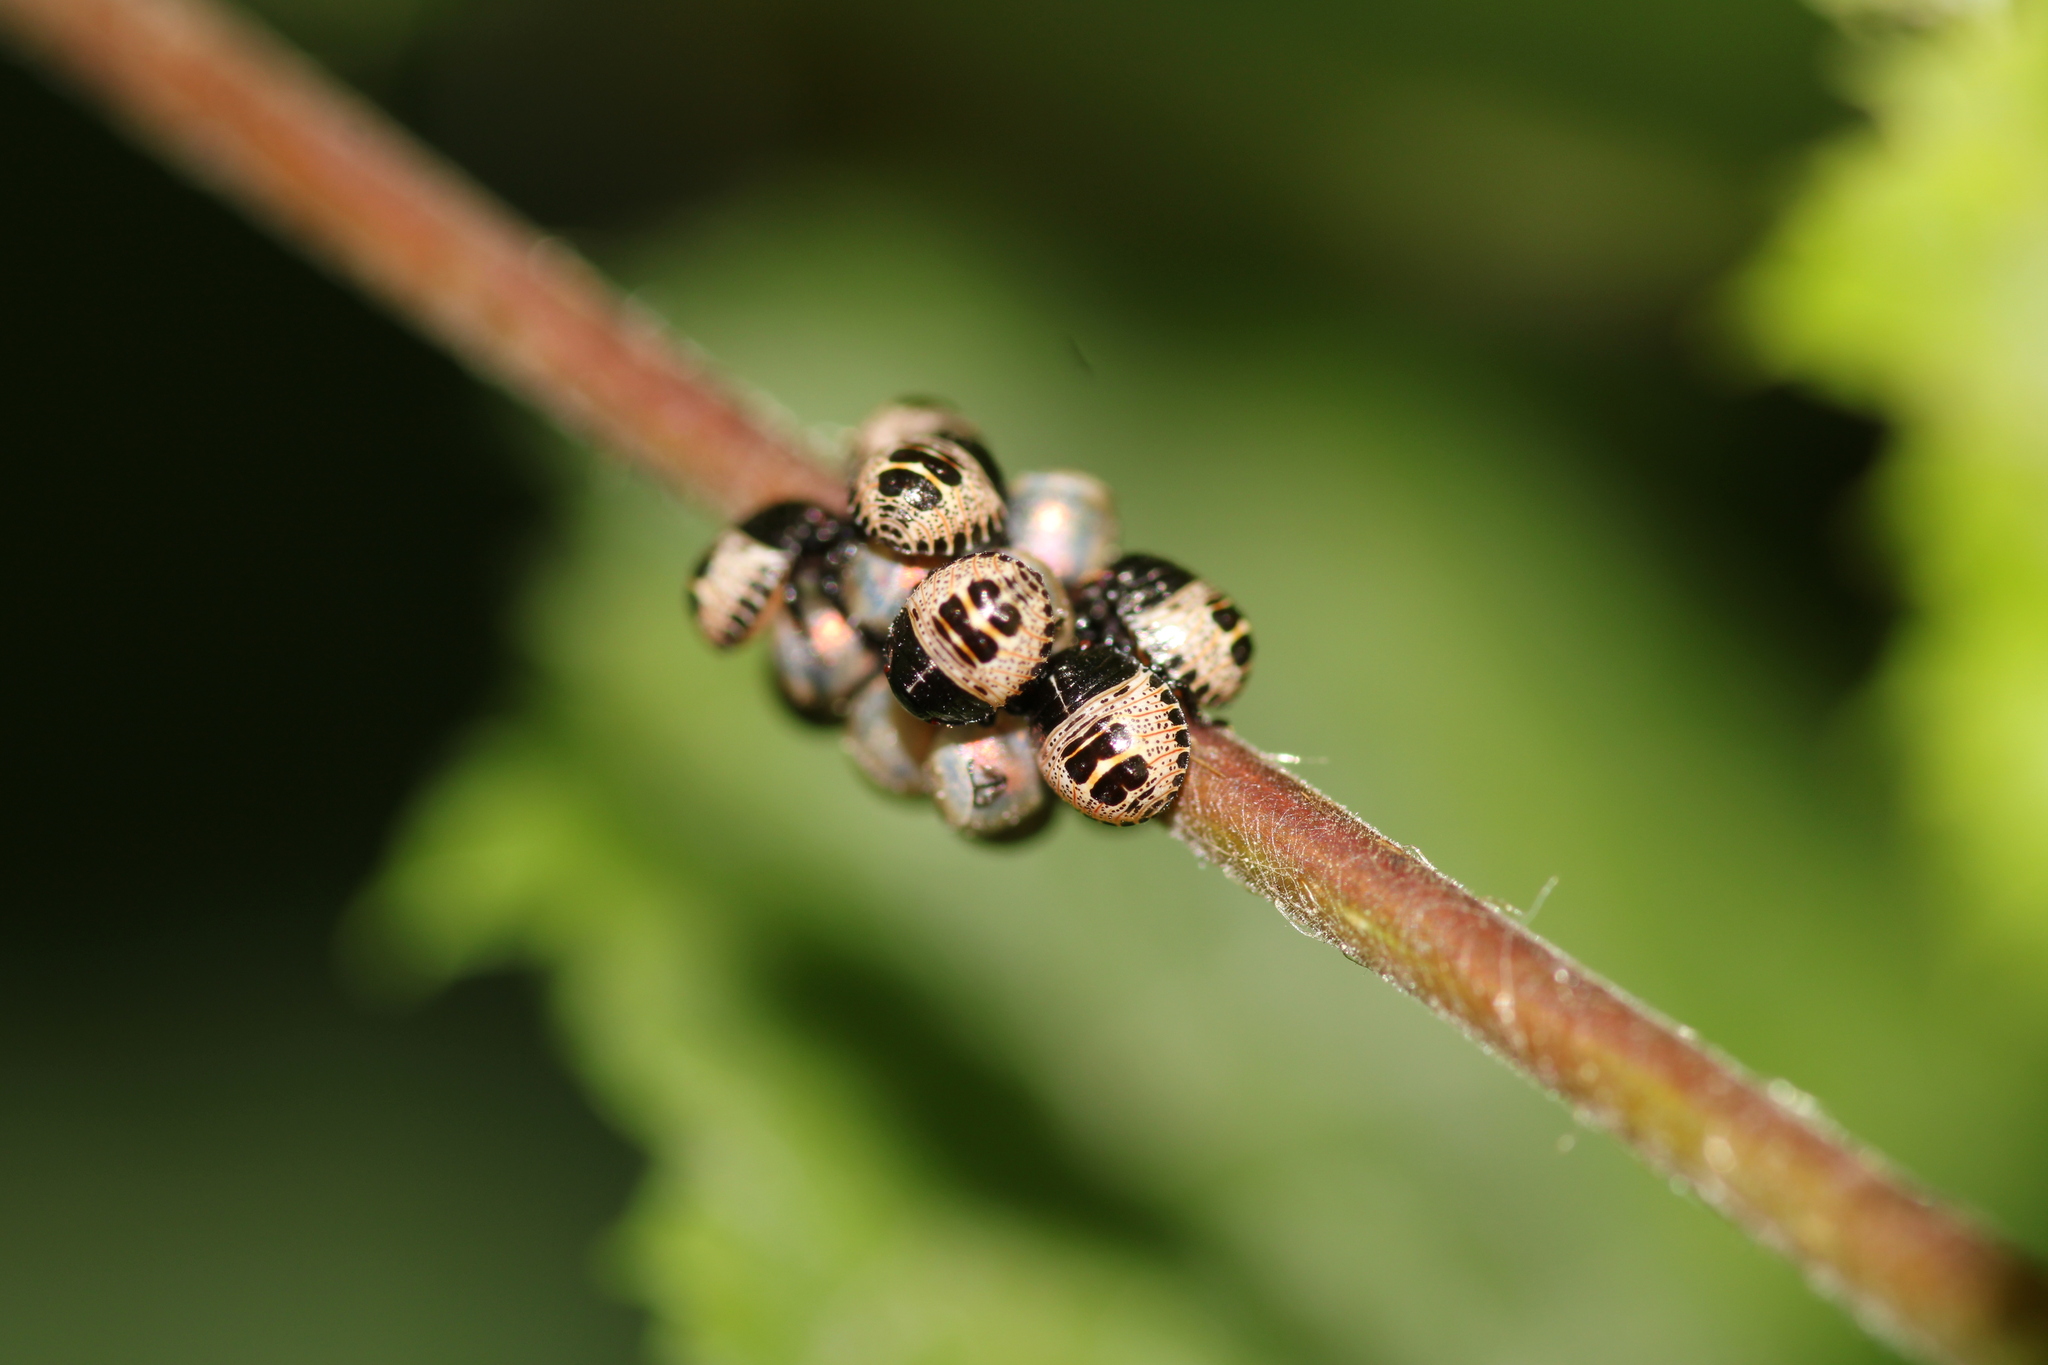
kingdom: Animalia
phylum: Arthropoda
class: Insecta
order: Hemiptera
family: Pentatomidae
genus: Rhaphigaster
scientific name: Rhaphigaster nebulosa
